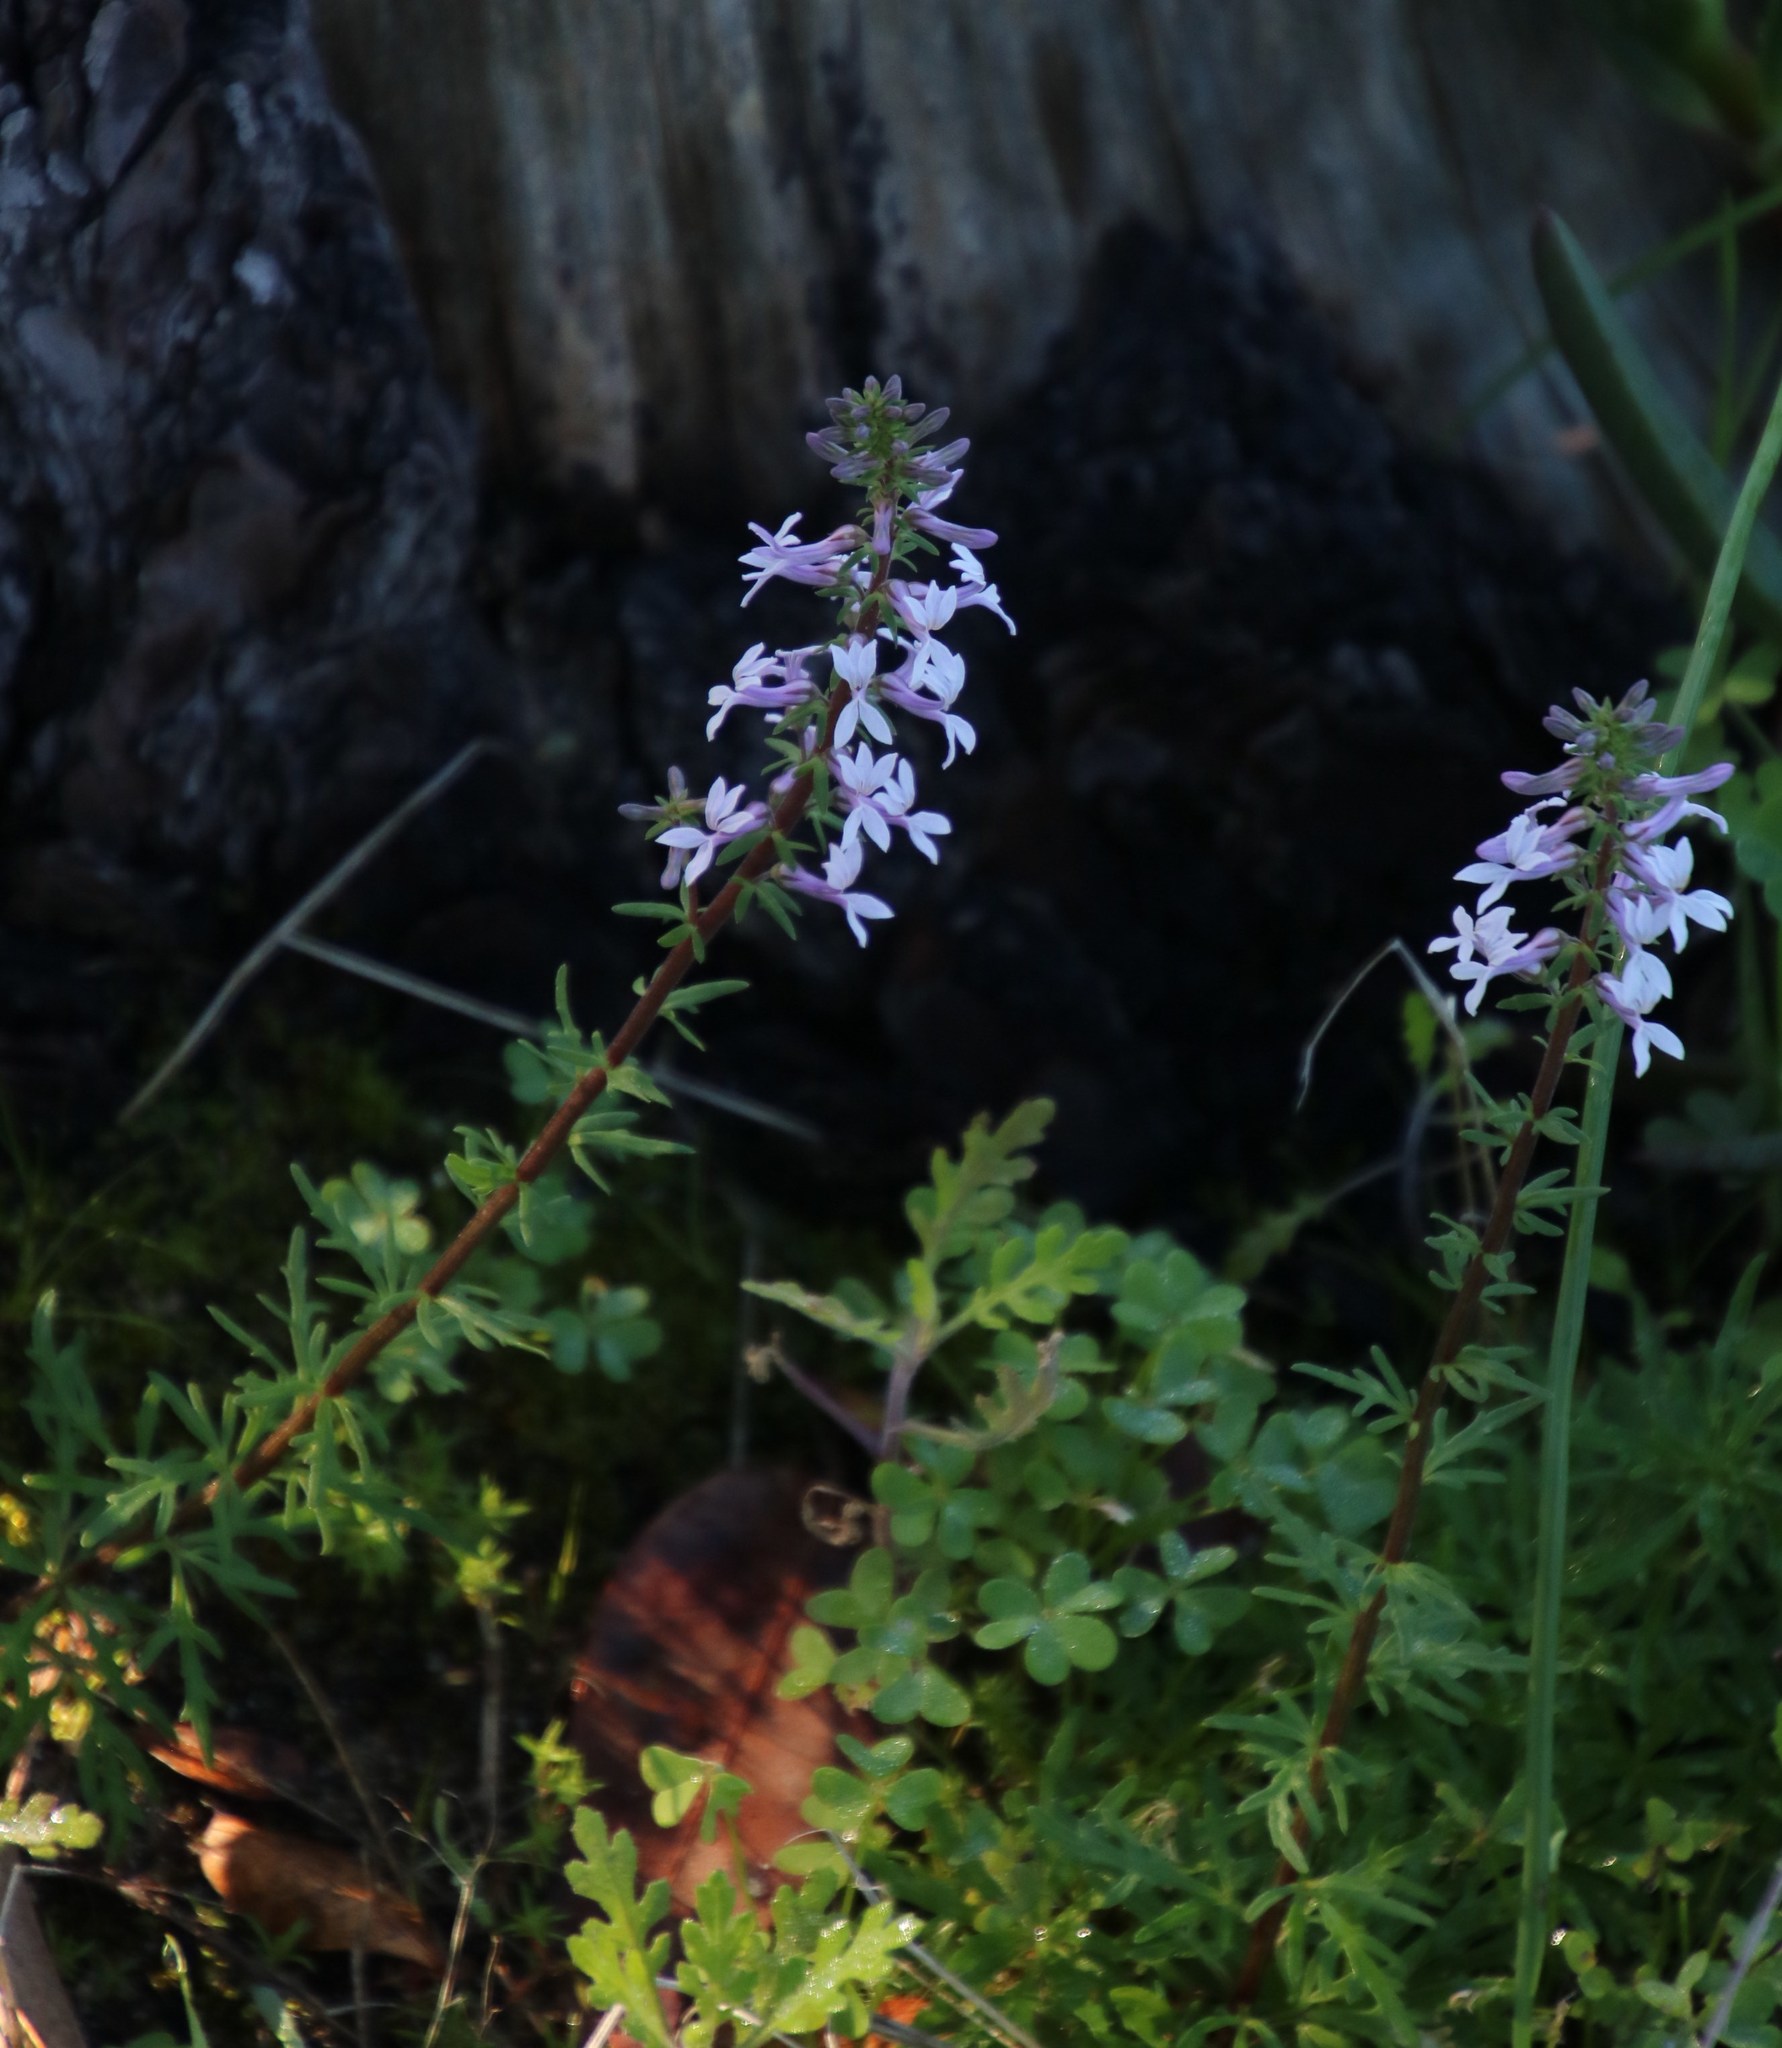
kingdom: Plantae
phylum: Tracheophyta
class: Magnoliopsida
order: Asterales
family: Campanulaceae
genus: Cyphia
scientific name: Cyphia bulbosa
